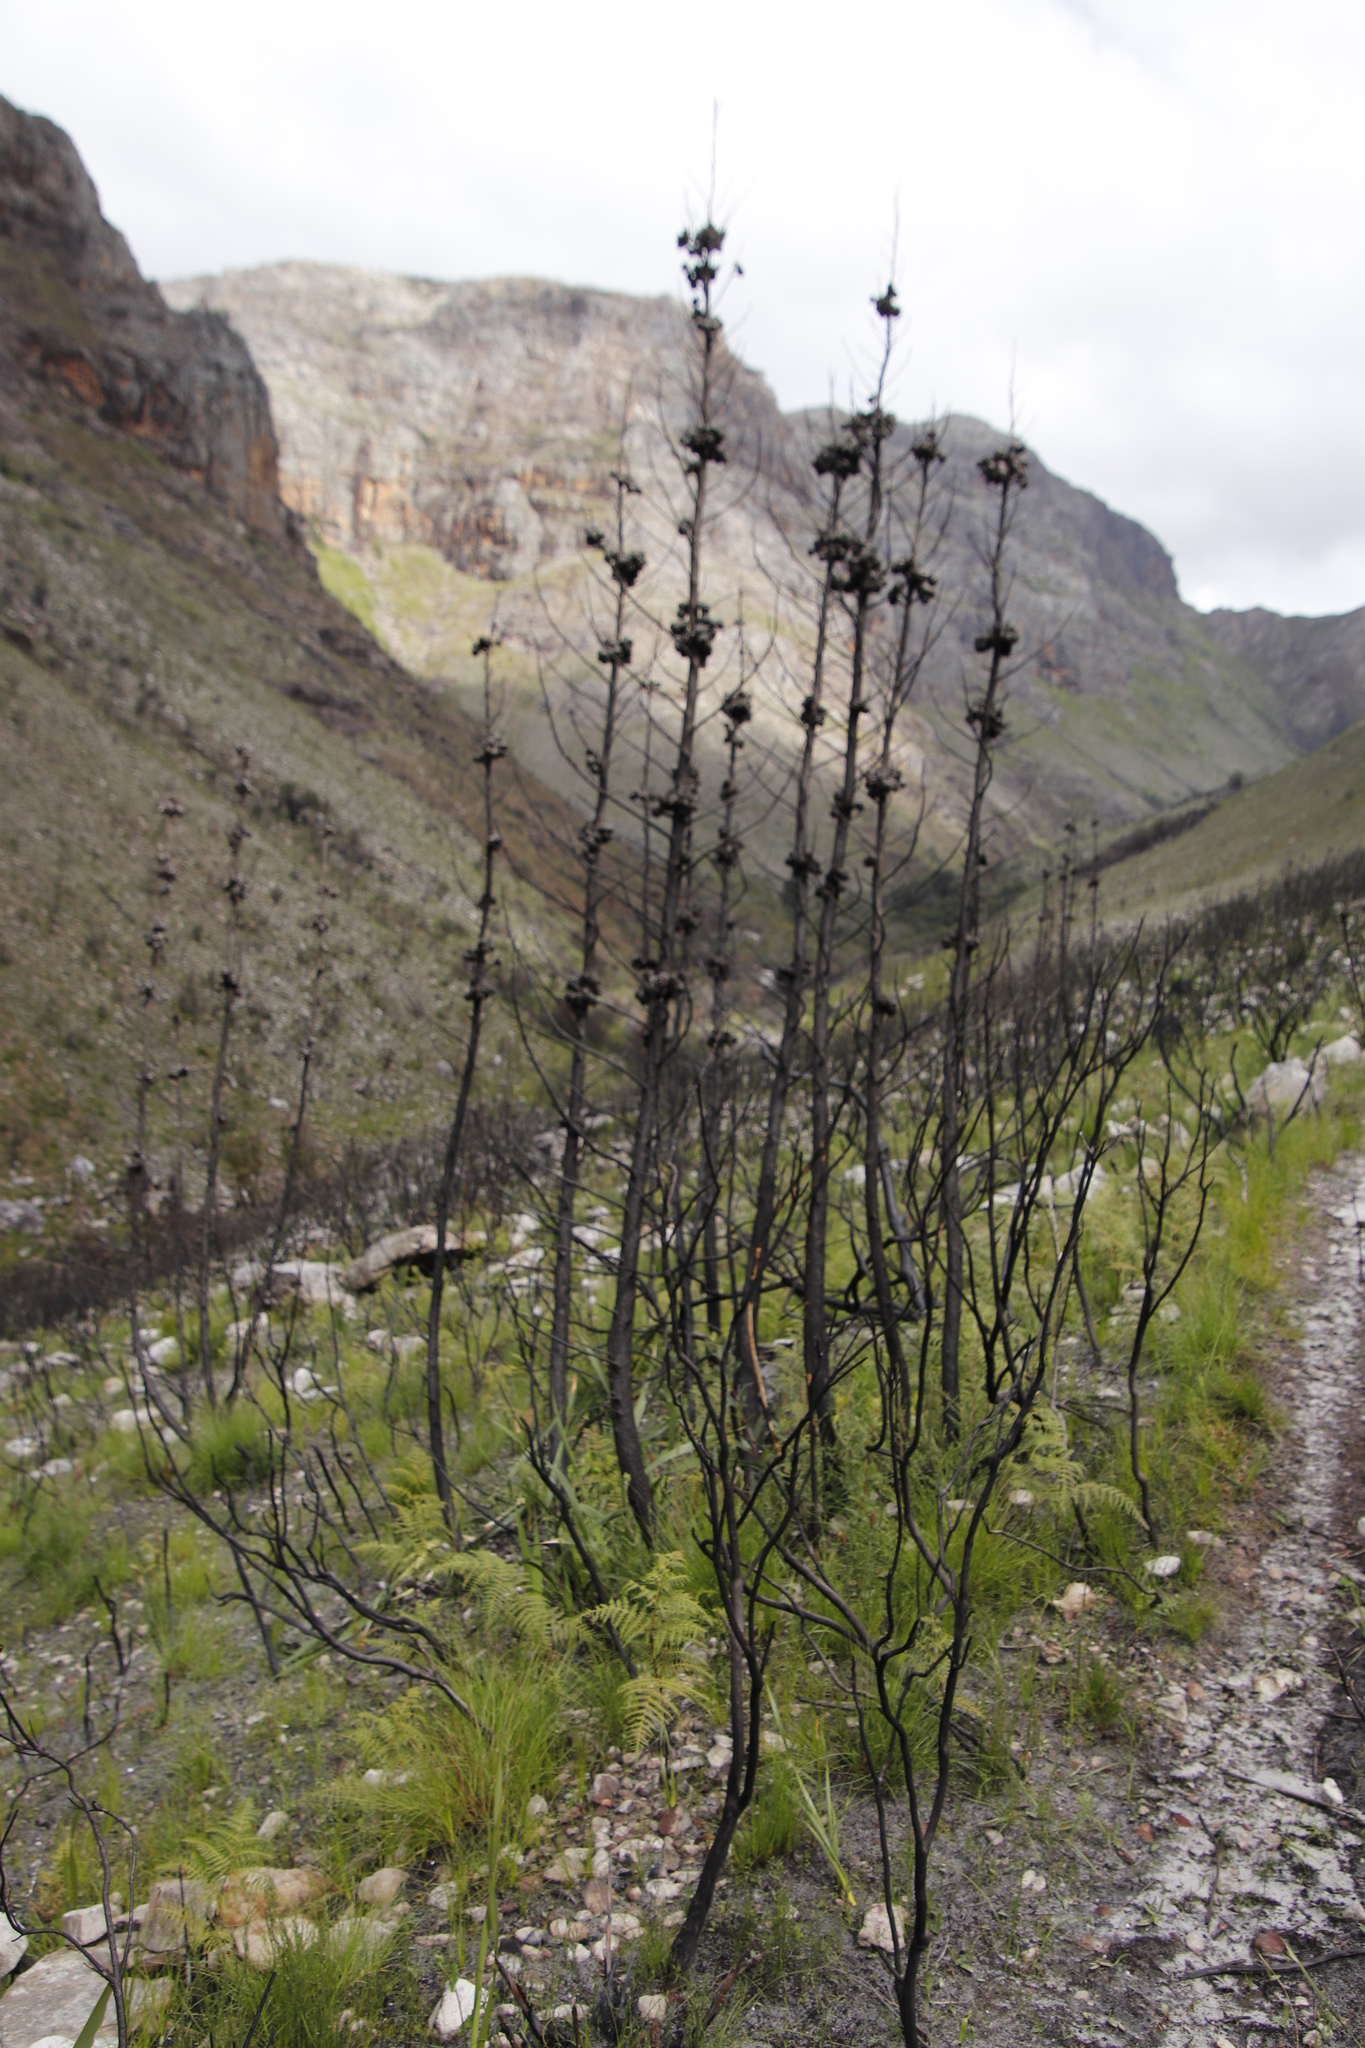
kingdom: Plantae
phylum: Tracheophyta
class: Pinopsida
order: Pinales
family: Cupressaceae
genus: Widdringtonia
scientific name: Widdringtonia nodiflora
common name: Cape cypress
